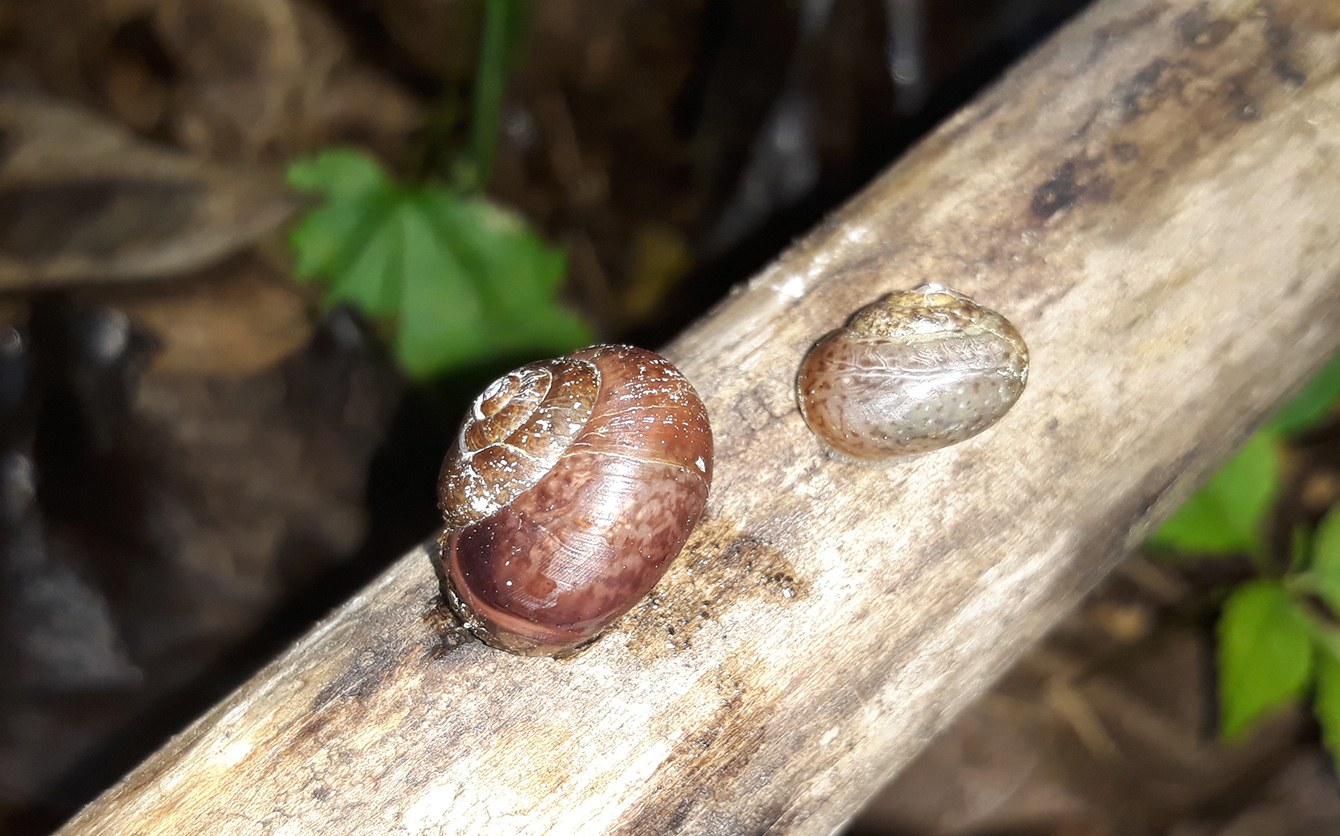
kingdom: Animalia
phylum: Mollusca
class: Gastropoda
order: Stylommatophora
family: Camaenidae
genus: Fruticicola
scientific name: Fruticicola fruticum
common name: Bush snail
